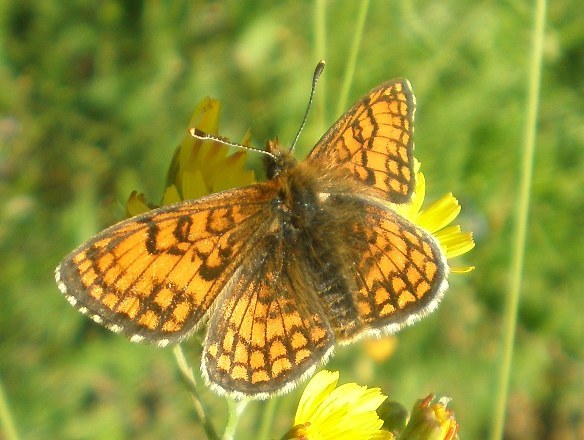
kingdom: Animalia
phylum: Arthropoda
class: Insecta
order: Lepidoptera
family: Nymphalidae
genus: Mellicta
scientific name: Mellicta parthenoides
